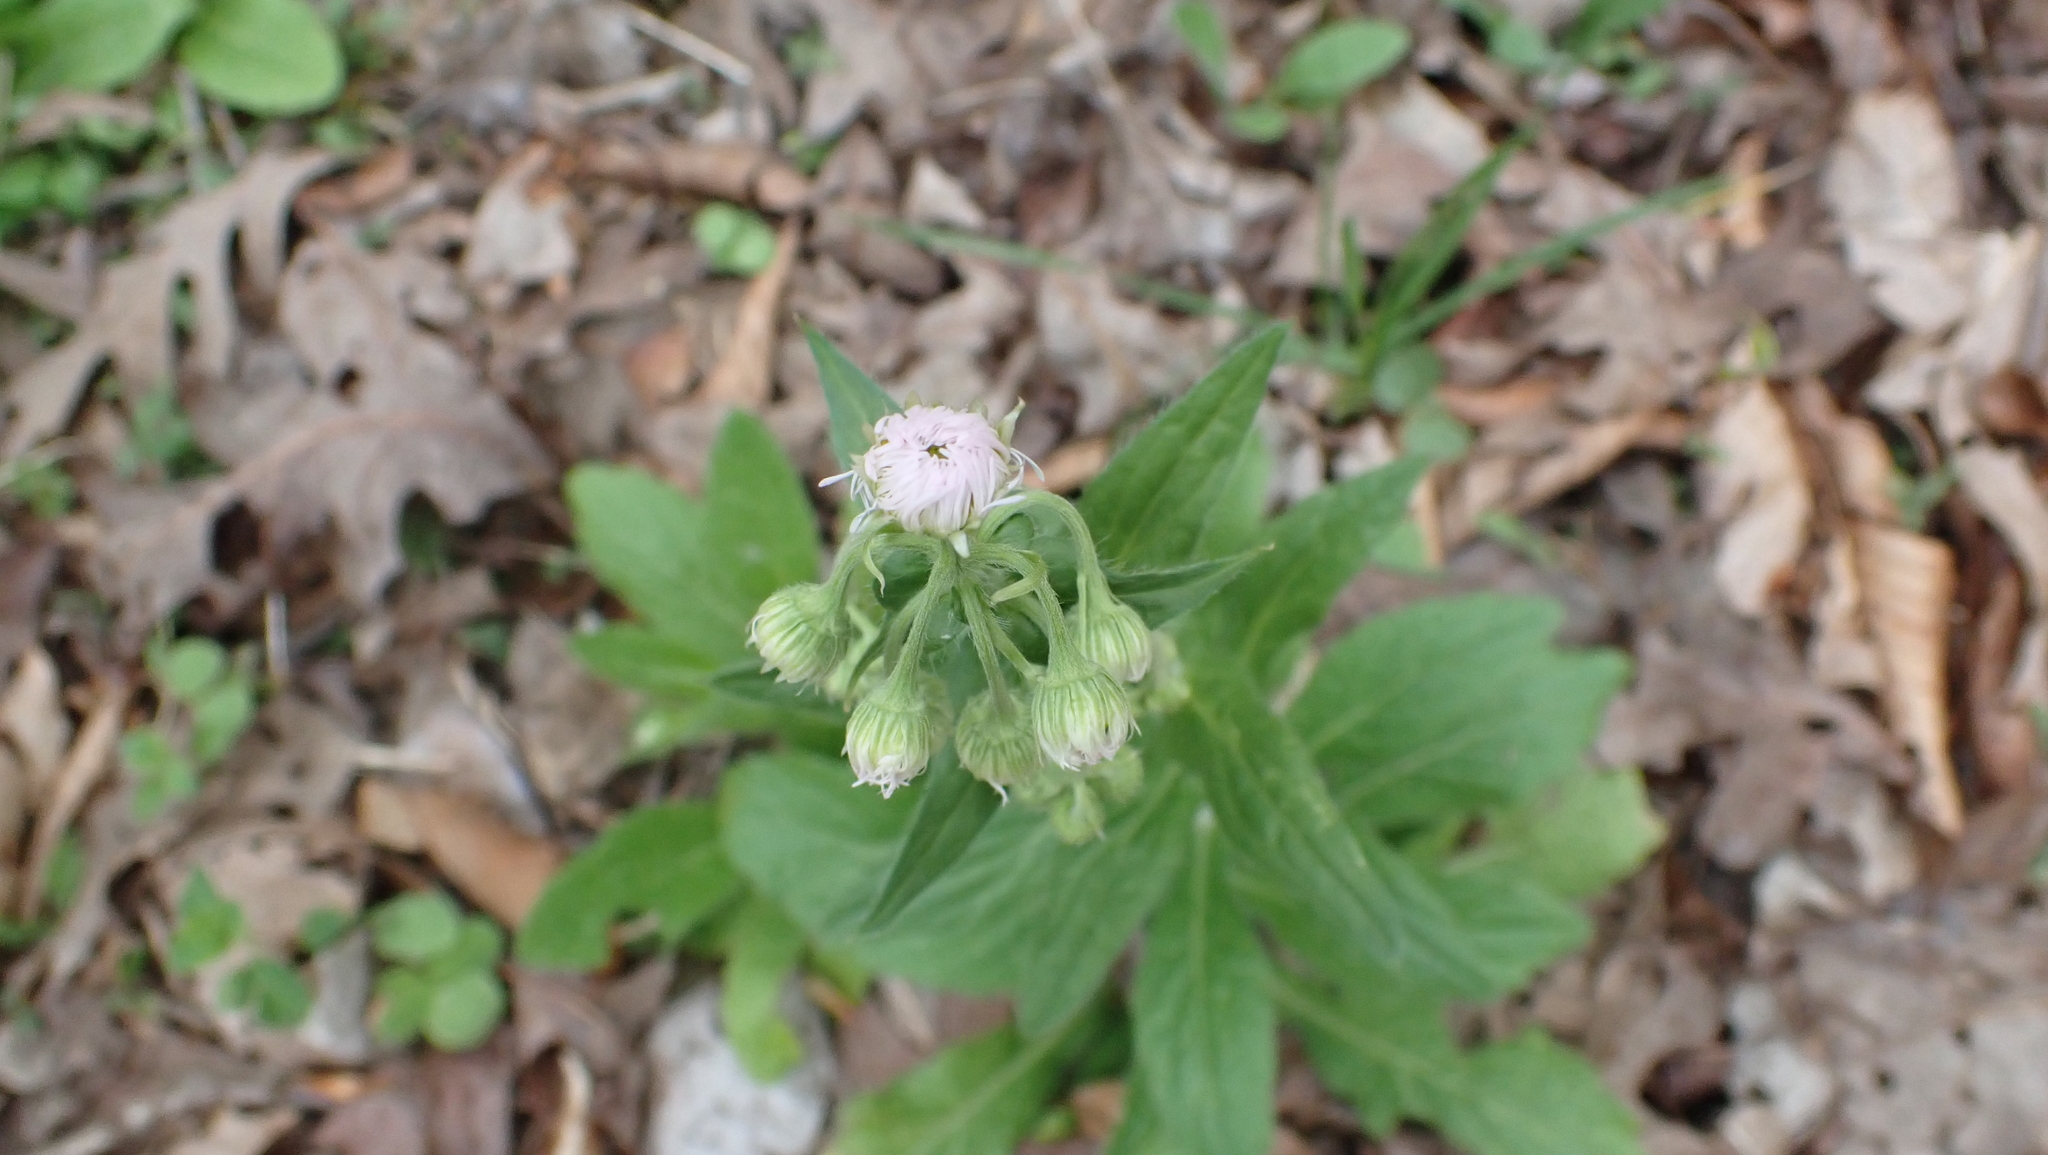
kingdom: Plantae
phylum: Tracheophyta
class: Magnoliopsida
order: Asterales
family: Asteraceae
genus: Erigeron
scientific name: Erigeron philadelphicus
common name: Robin's-plantain
